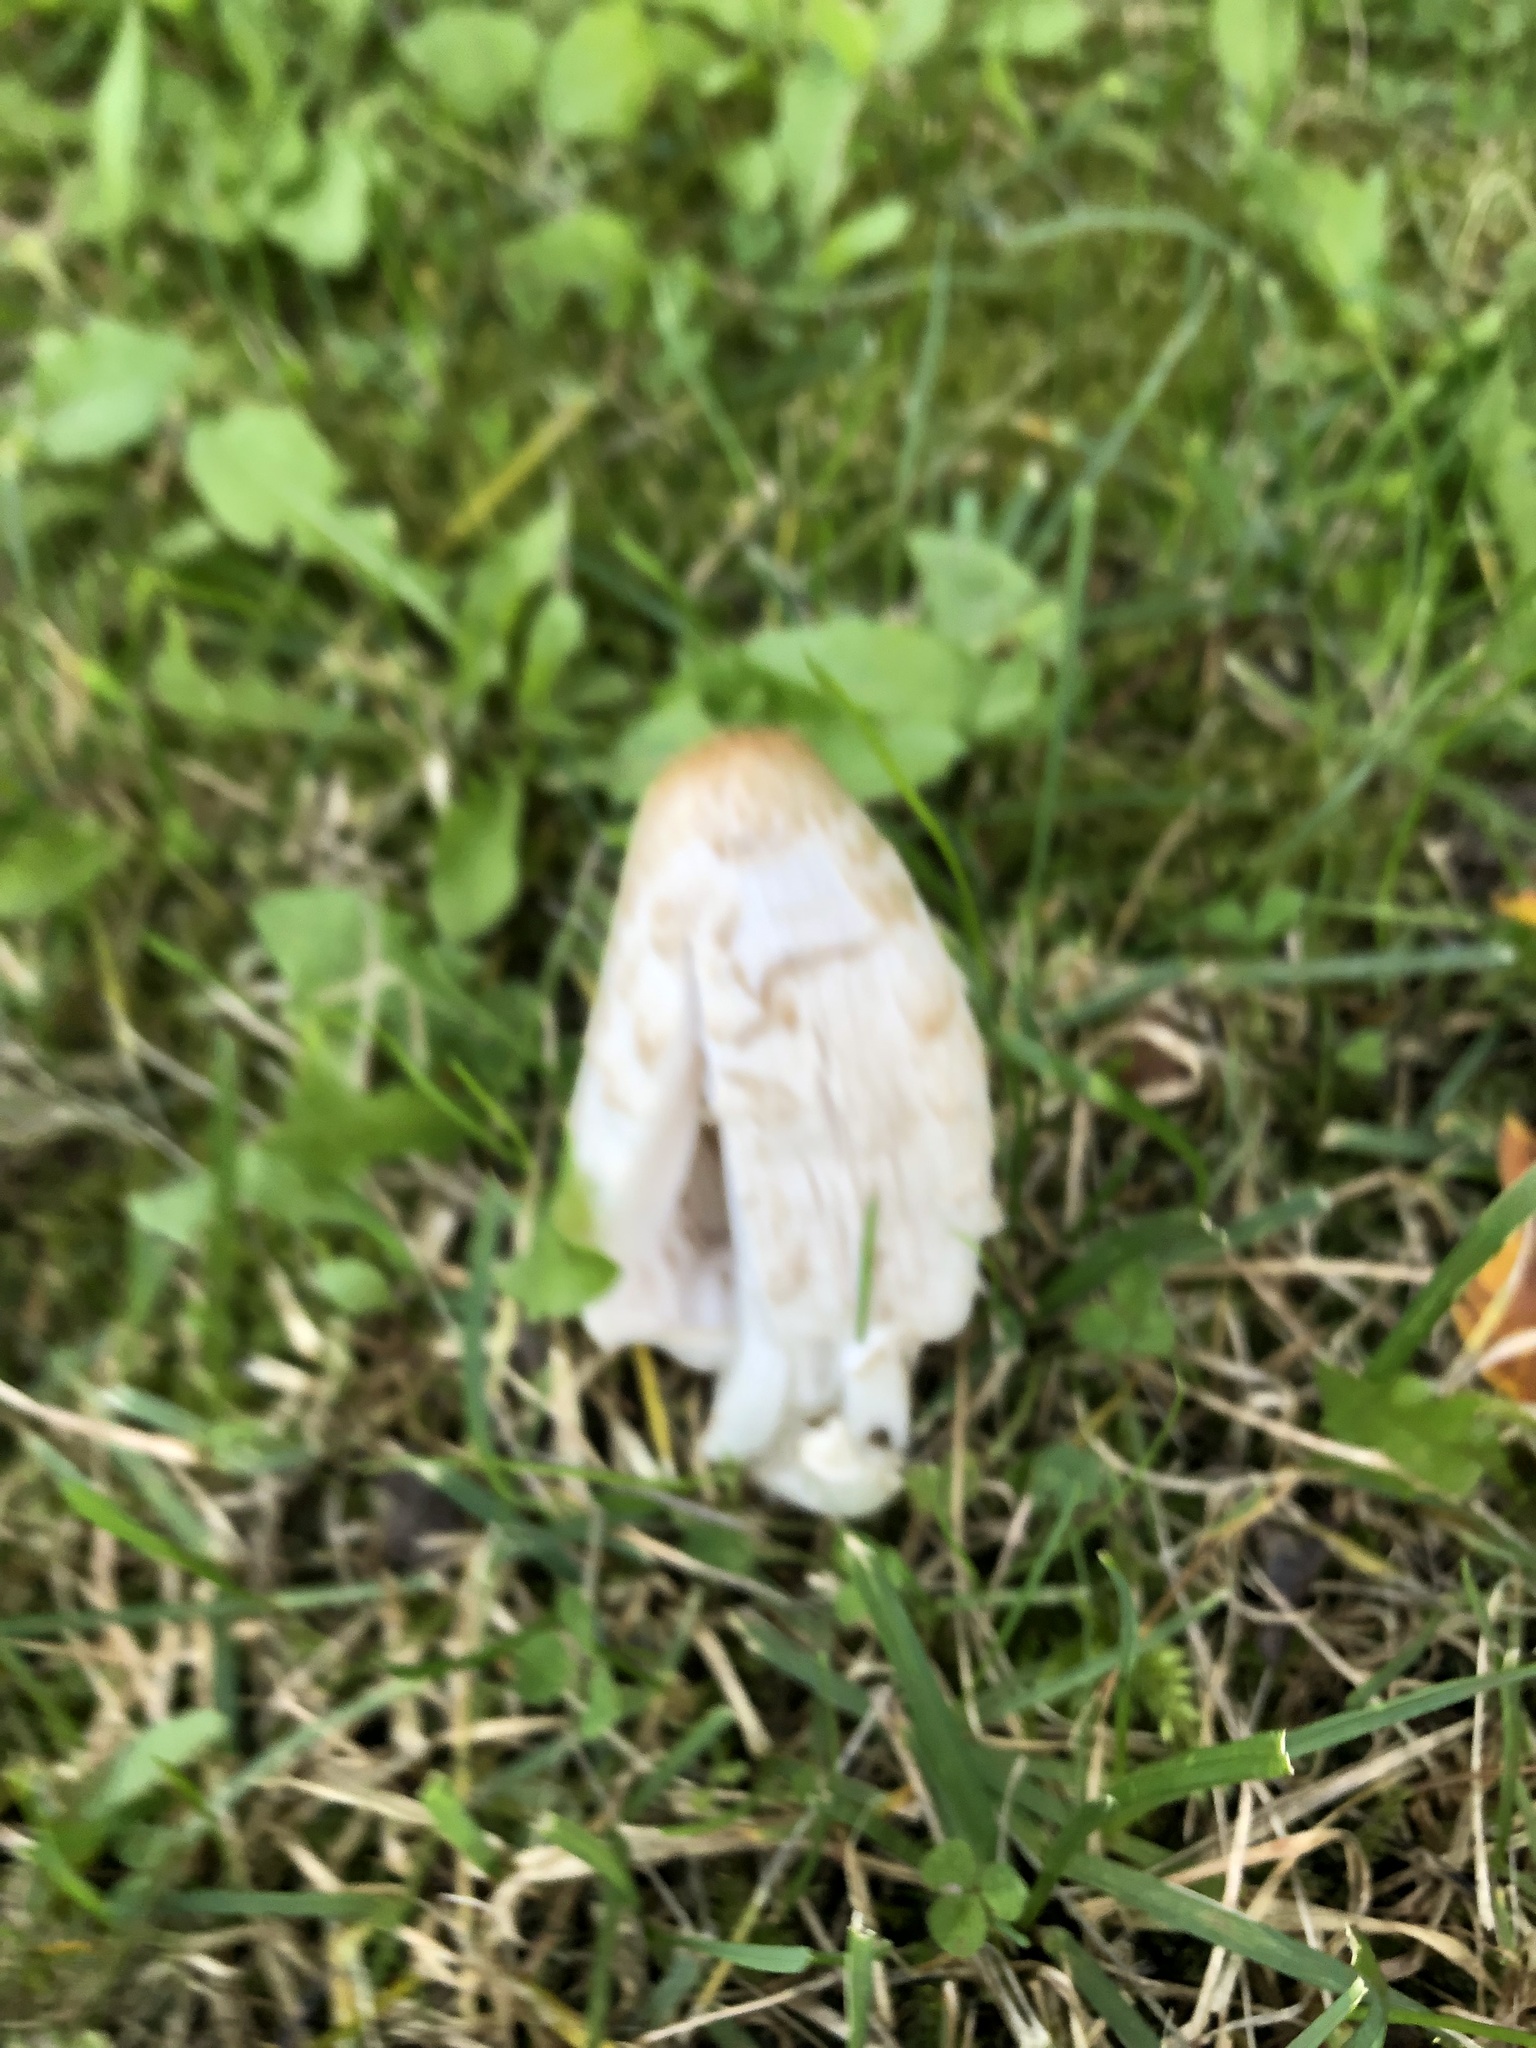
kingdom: Fungi
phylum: Basidiomycota
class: Agaricomycetes
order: Agaricales
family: Agaricaceae
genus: Coprinus
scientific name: Coprinus comatus
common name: Lawyer's wig
